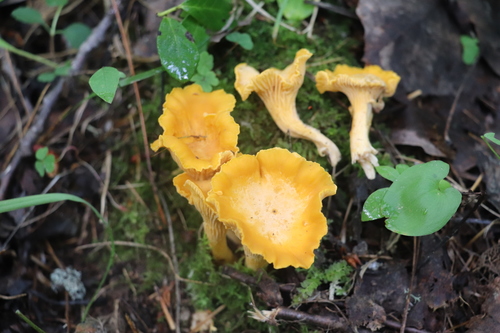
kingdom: Fungi
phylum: Basidiomycota
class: Agaricomycetes
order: Cantharellales
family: Hydnaceae
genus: Cantharellus
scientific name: Cantharellus cibarius
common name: Chanterelle
